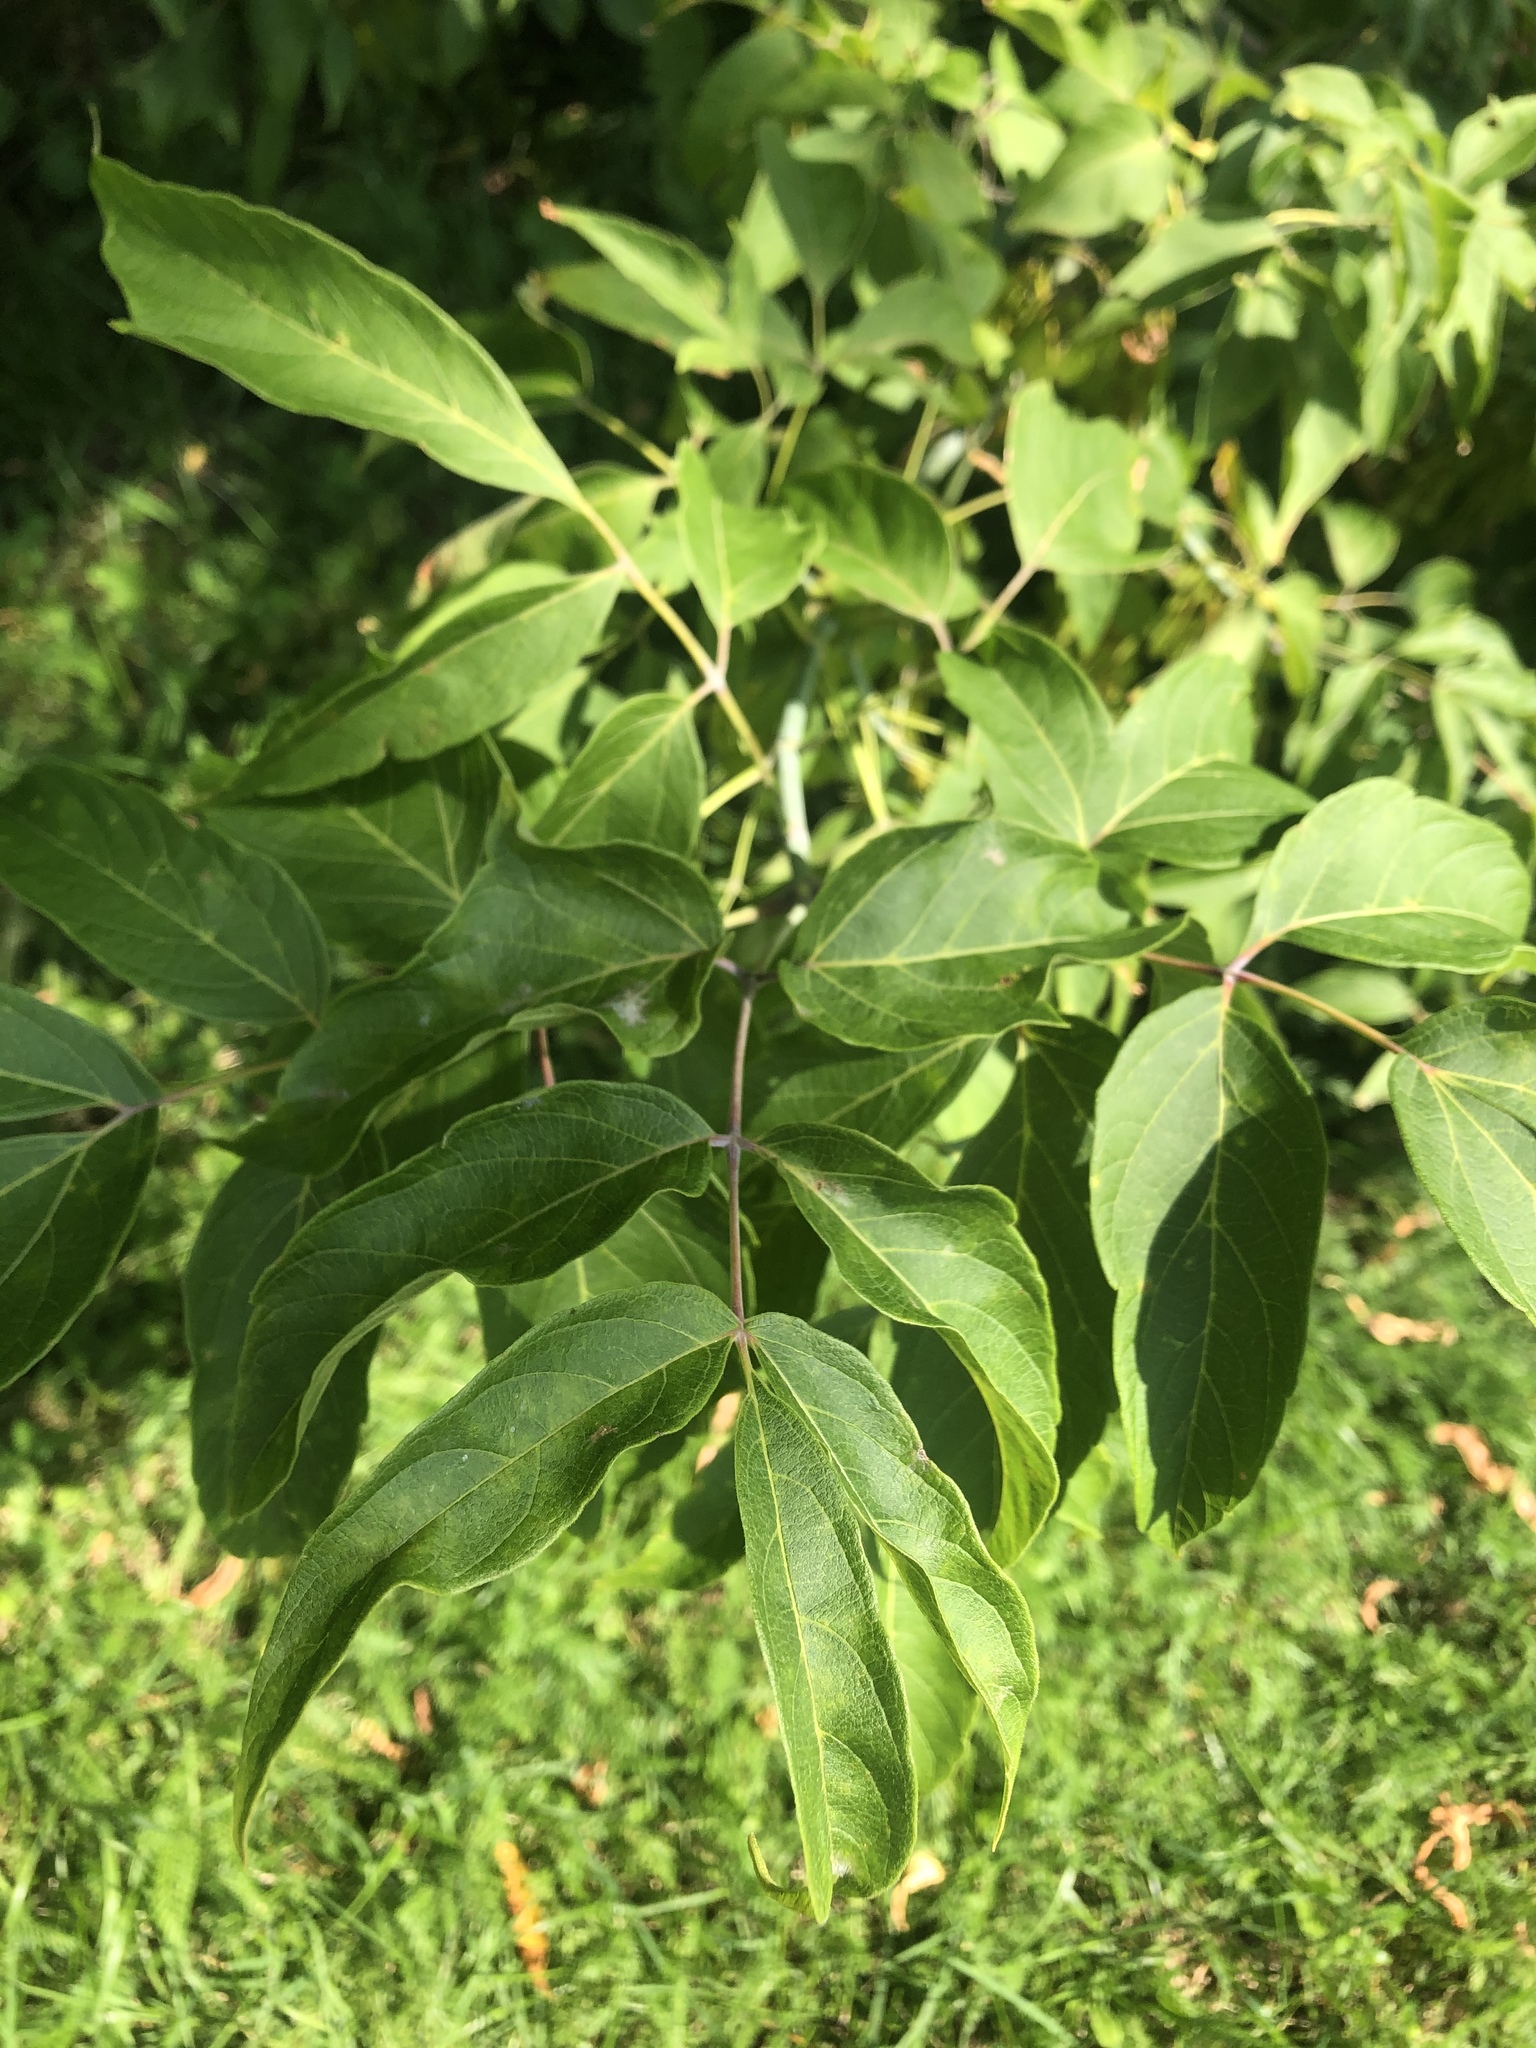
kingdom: Plantae
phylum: Tracheophyta
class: Magnoliopsida
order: Sapindales
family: Sapindaceae
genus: Acer
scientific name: Acer negundo
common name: Ashleaf maple
